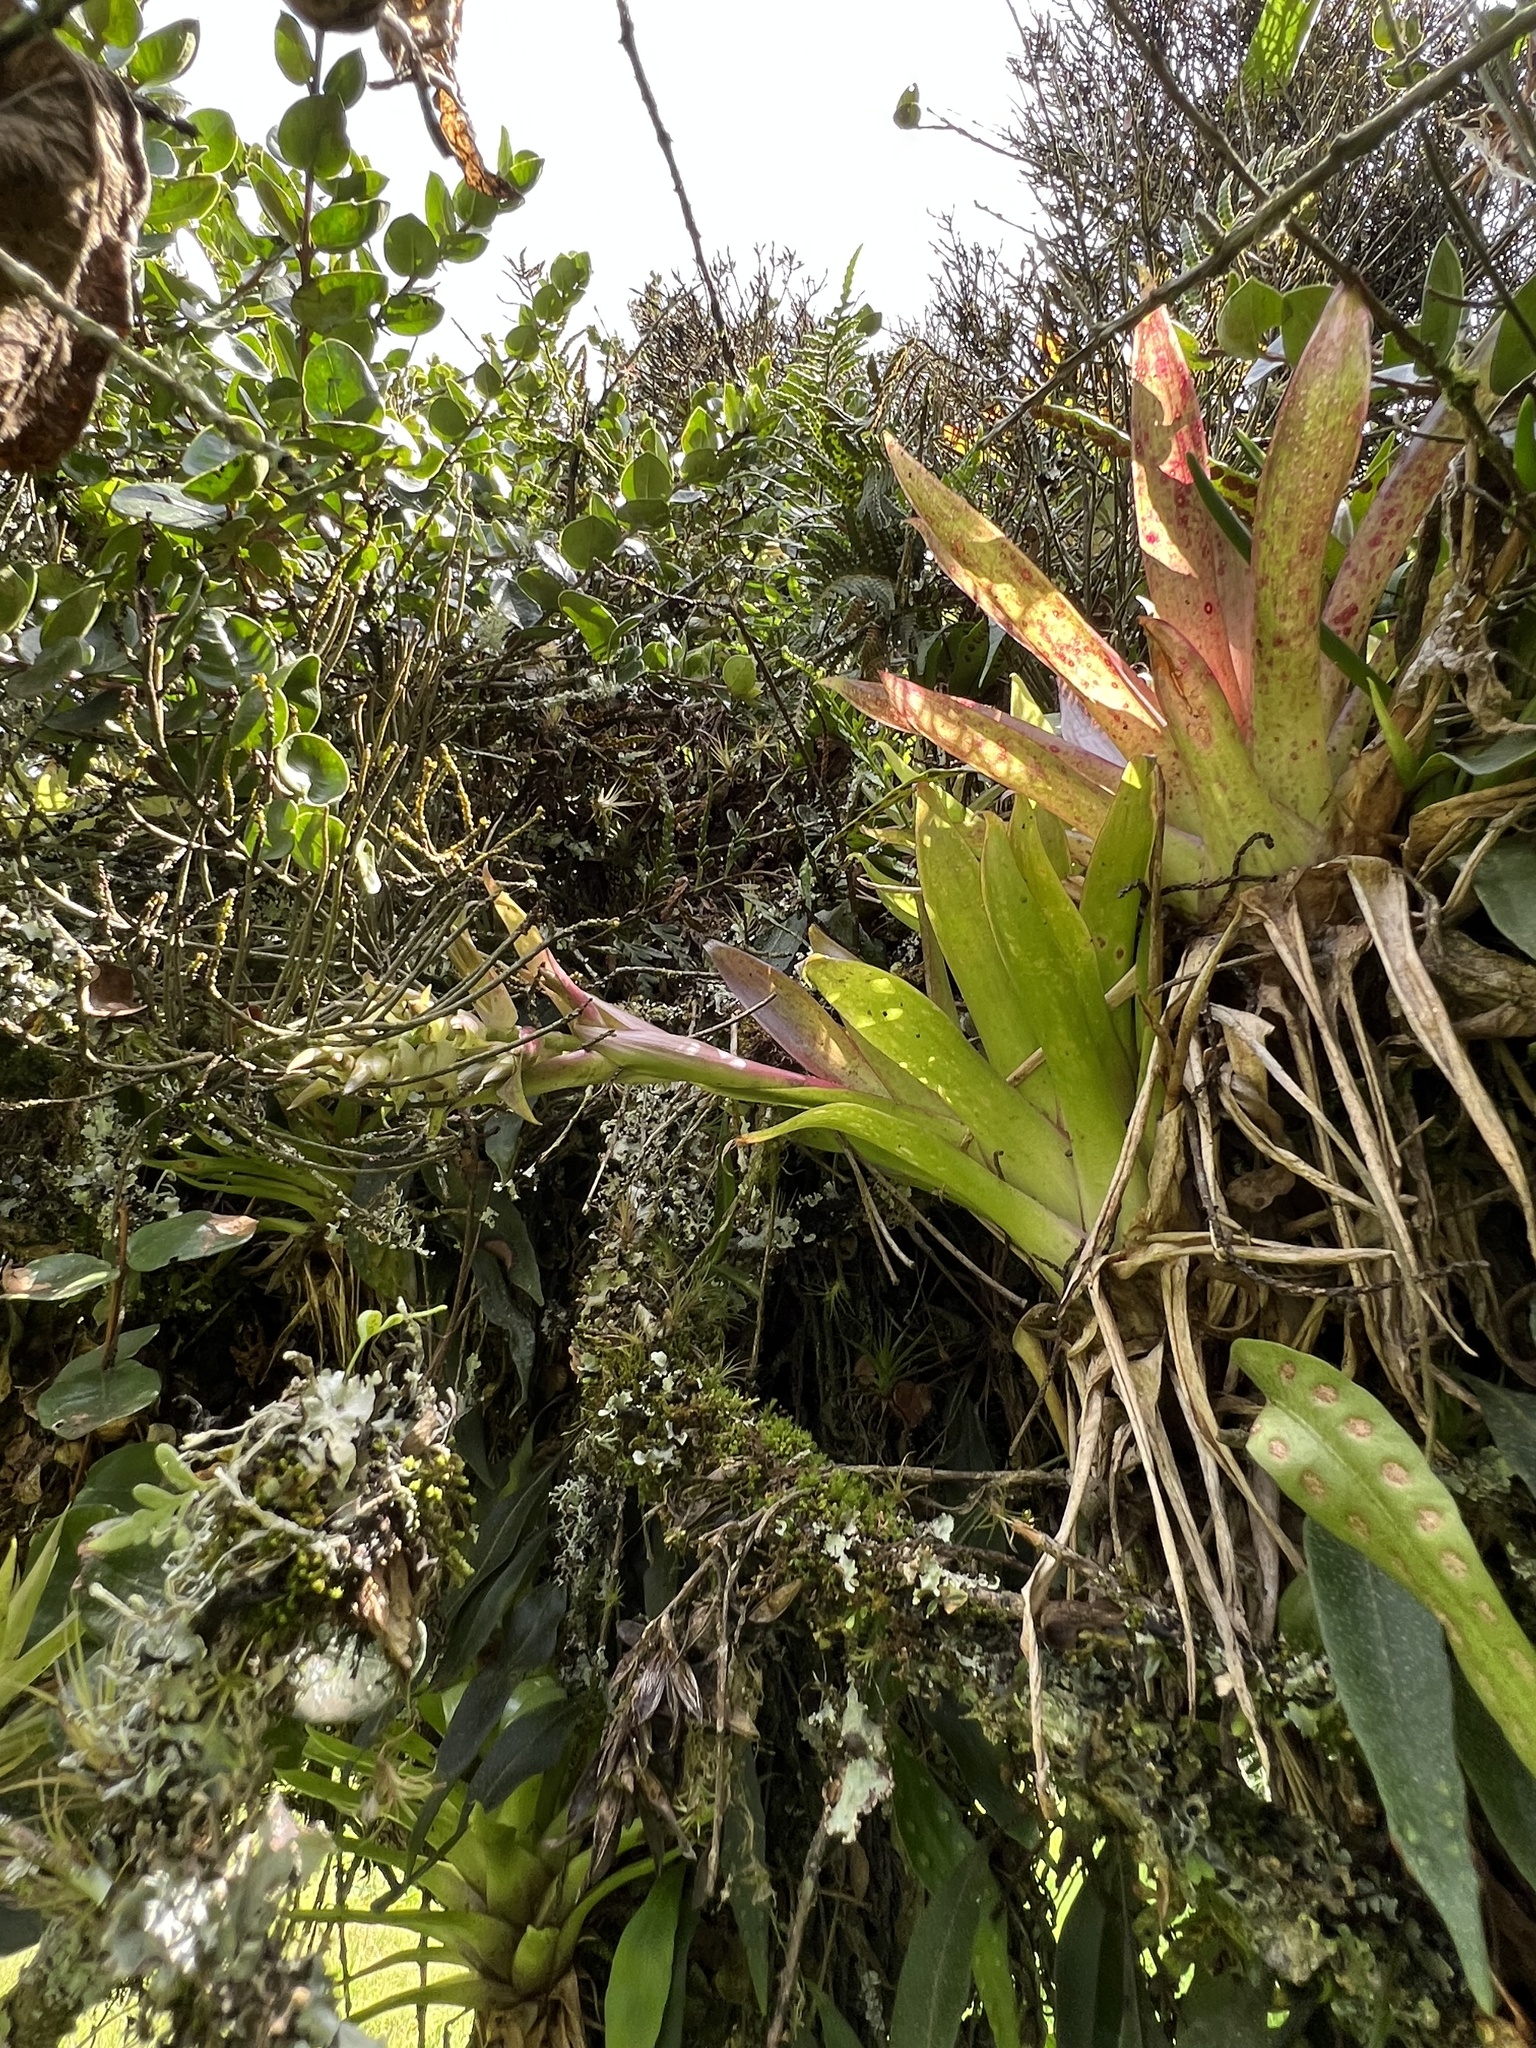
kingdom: Plantae
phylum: Tracheophyta
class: Liliopsida
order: Poales
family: Bromeliaceae
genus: Tillandsia
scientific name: Tillandsia biflora
